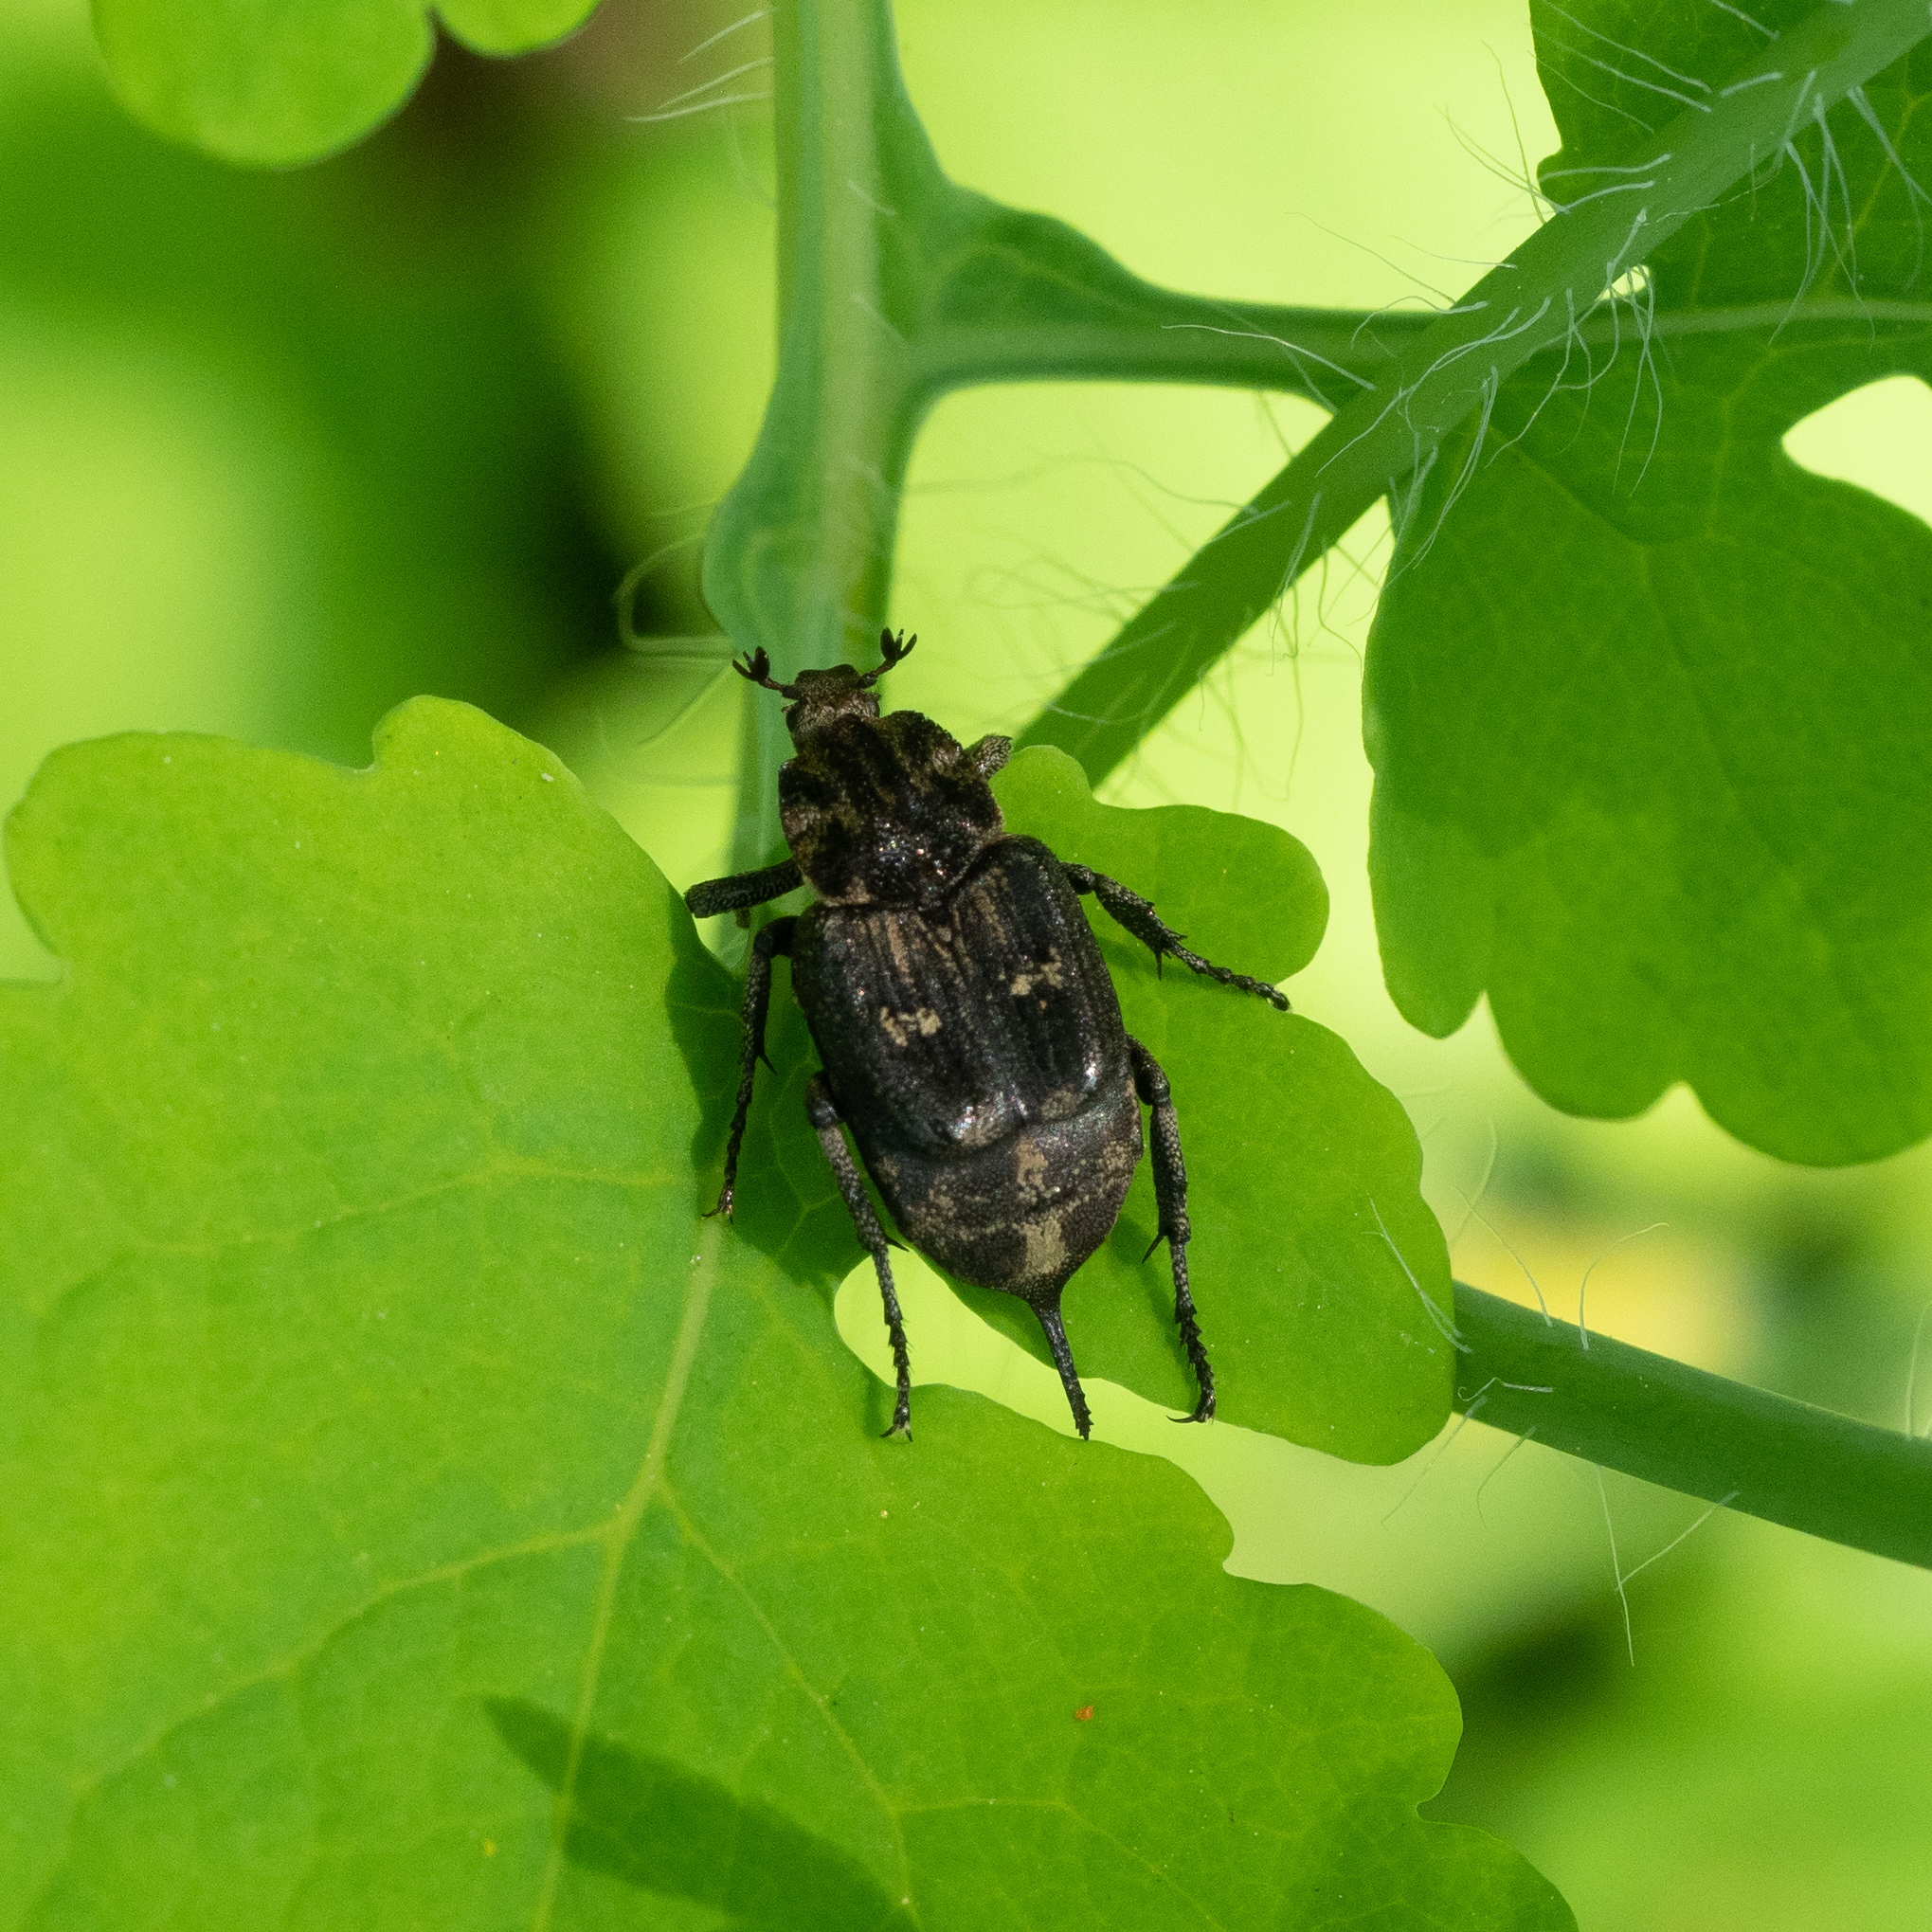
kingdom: Animalia
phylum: Arthropoda
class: Insecta
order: Coleoptera
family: Scarabaeidae
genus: Valgus
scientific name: Valgus hemipterus
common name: Bug flower chafer
